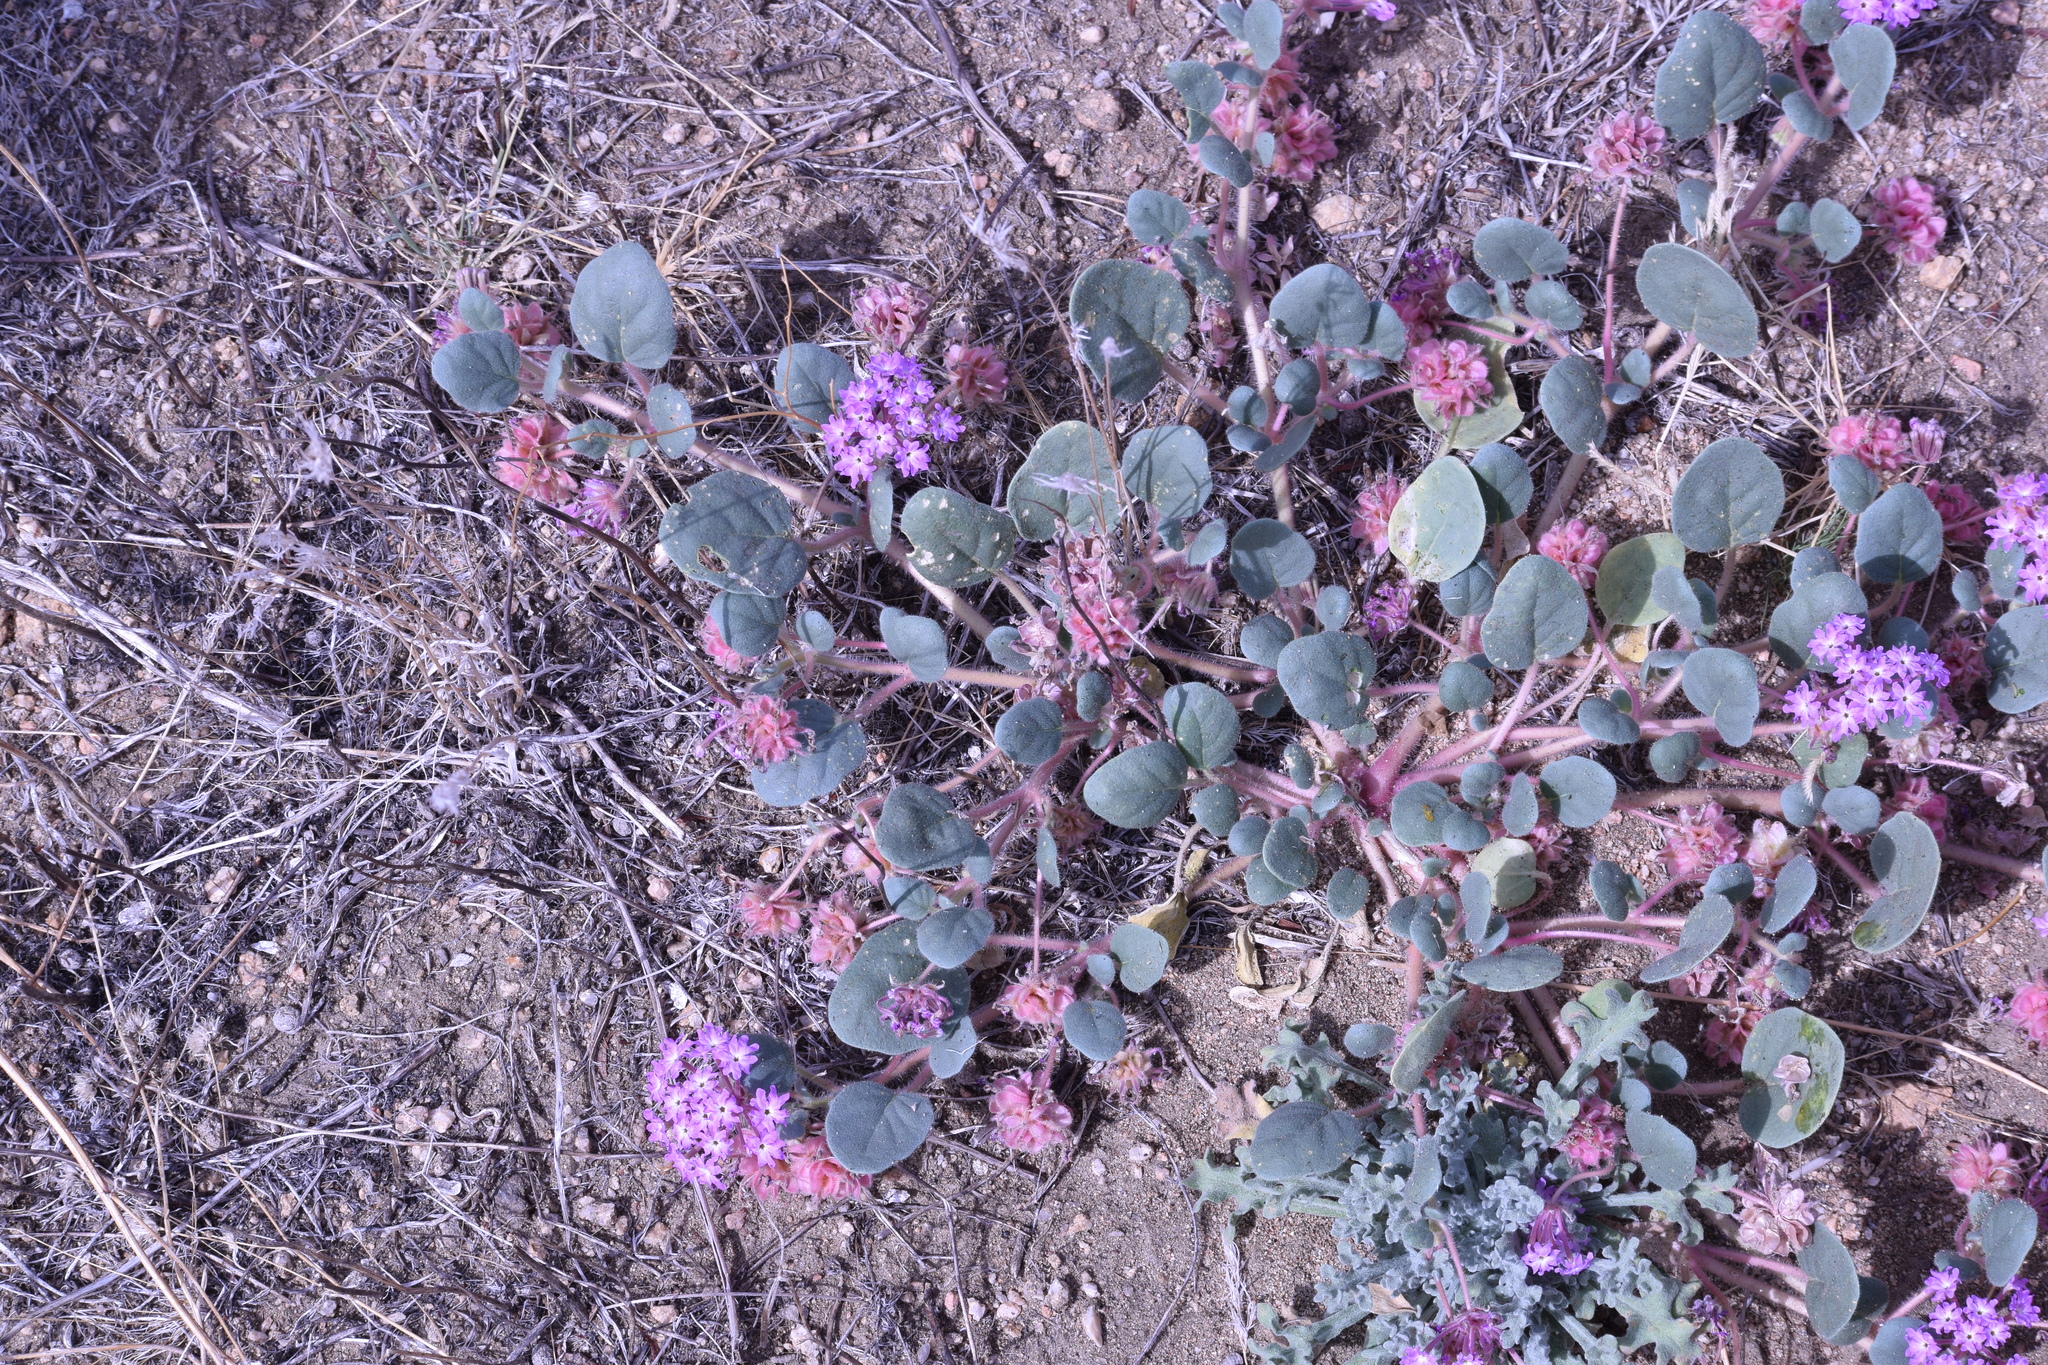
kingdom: Plantae
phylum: Tracheophyta
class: Magnoliopsida
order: Caryophyllales
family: Nyctaginaceae
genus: Abronia
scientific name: Abronia villosa
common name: Desert sand-verbena
